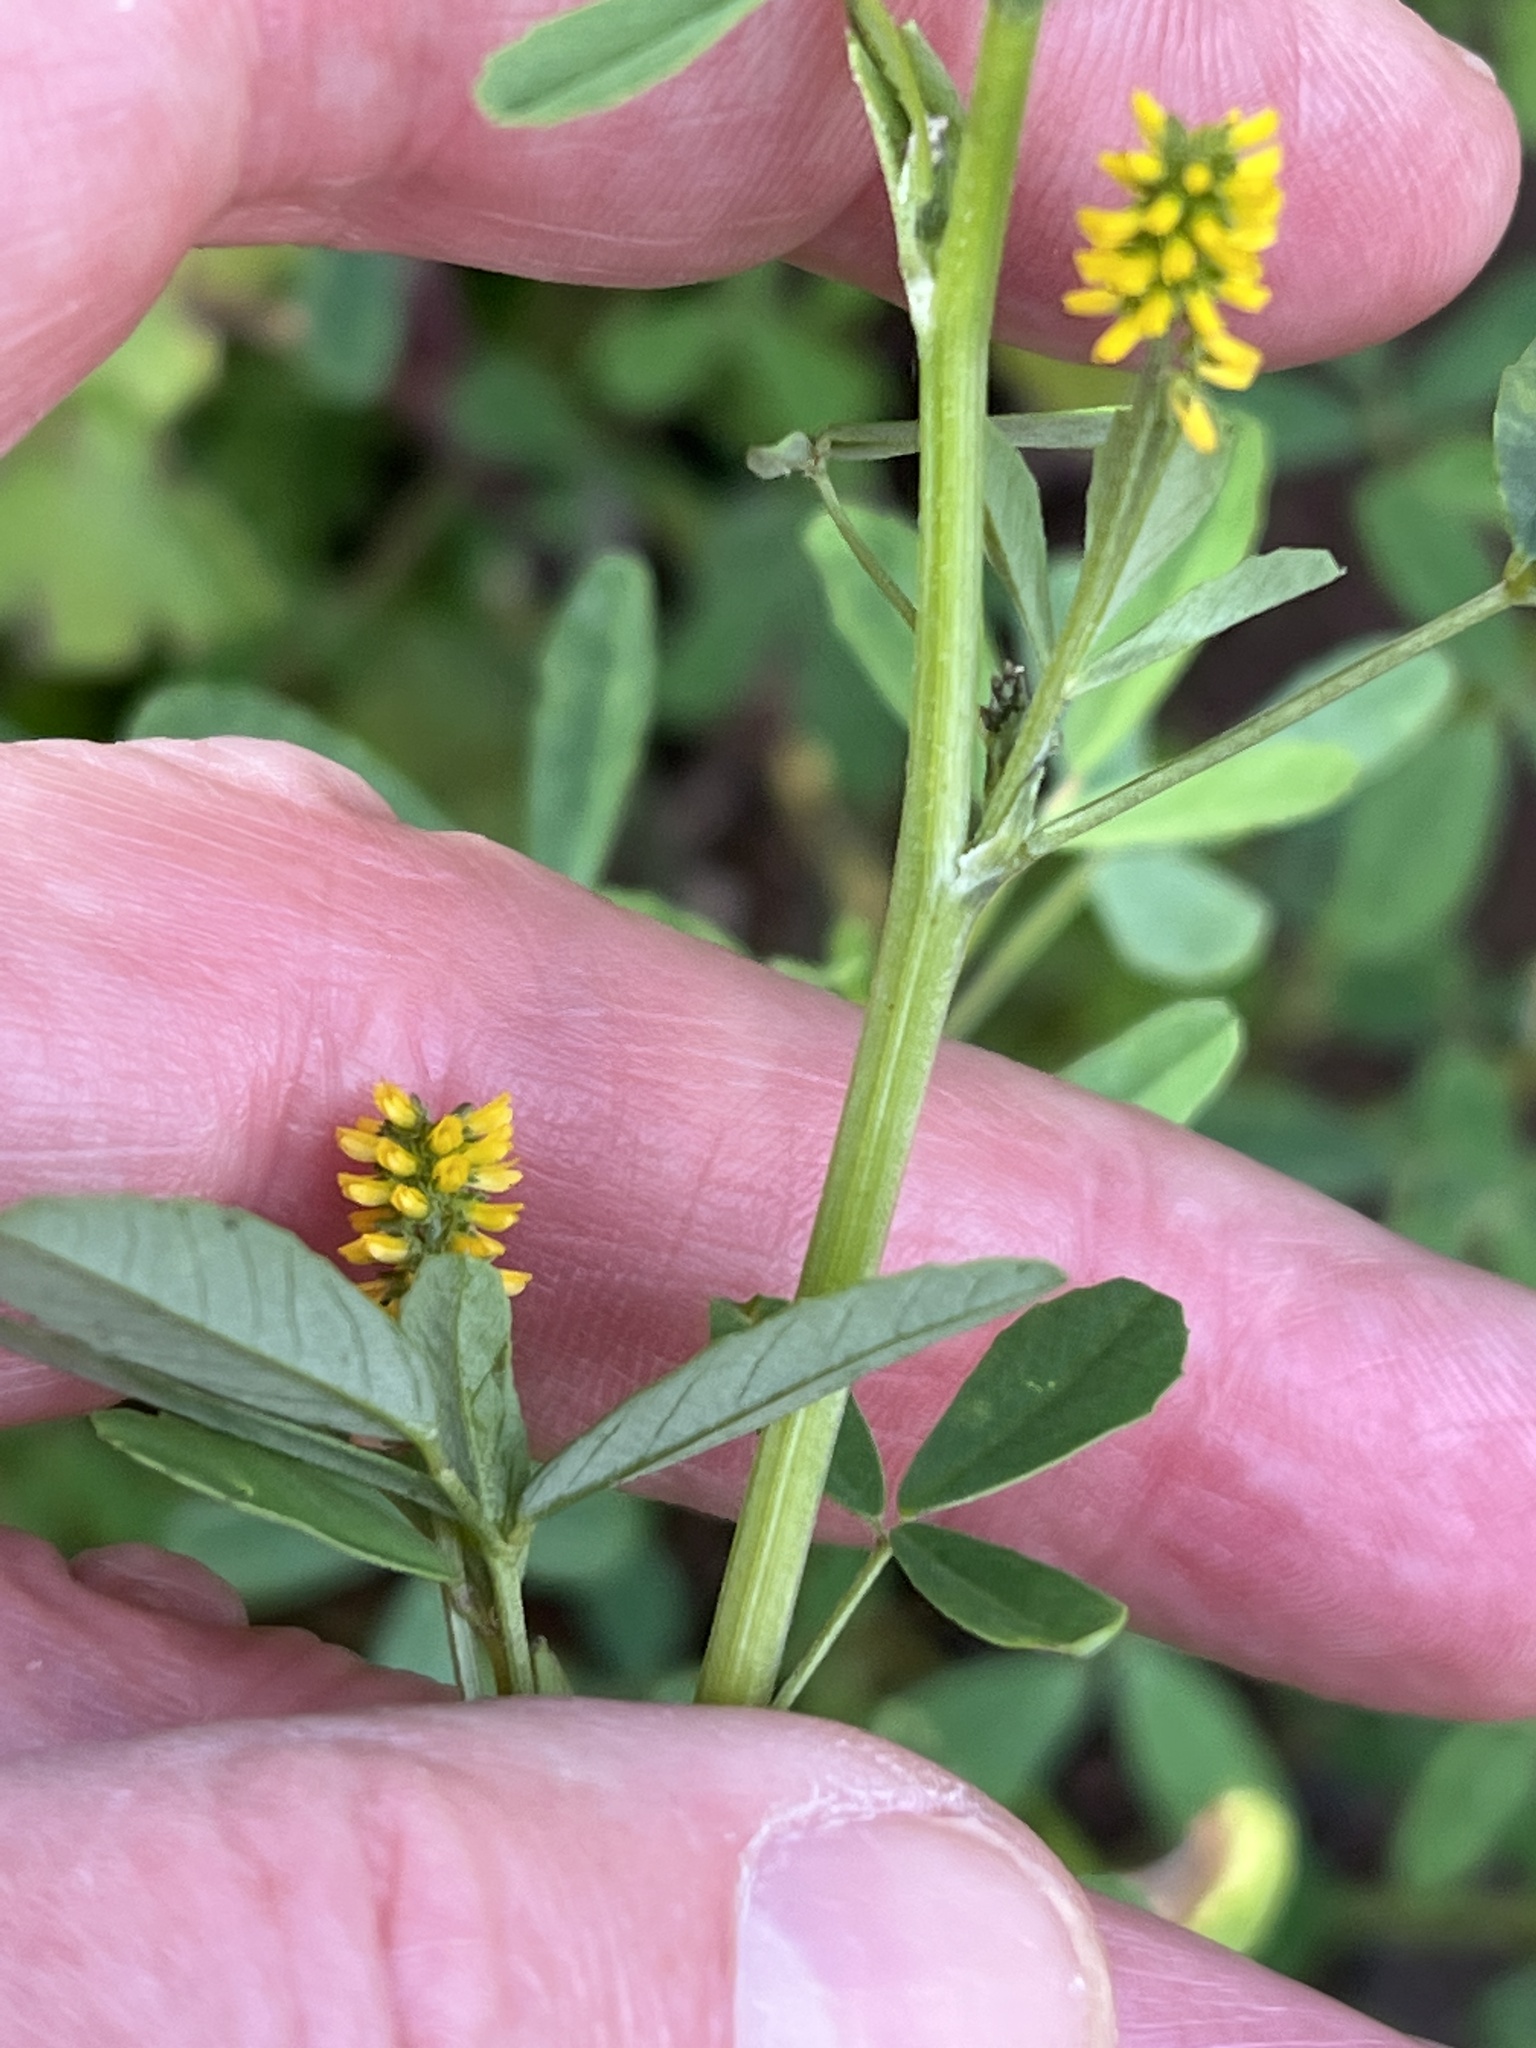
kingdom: Plantae
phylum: Tracheophyta
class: Magnoliopsida
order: Fabales
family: Fabaceae
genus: Melilotus
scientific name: Melilotus indicus
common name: Small melilot
